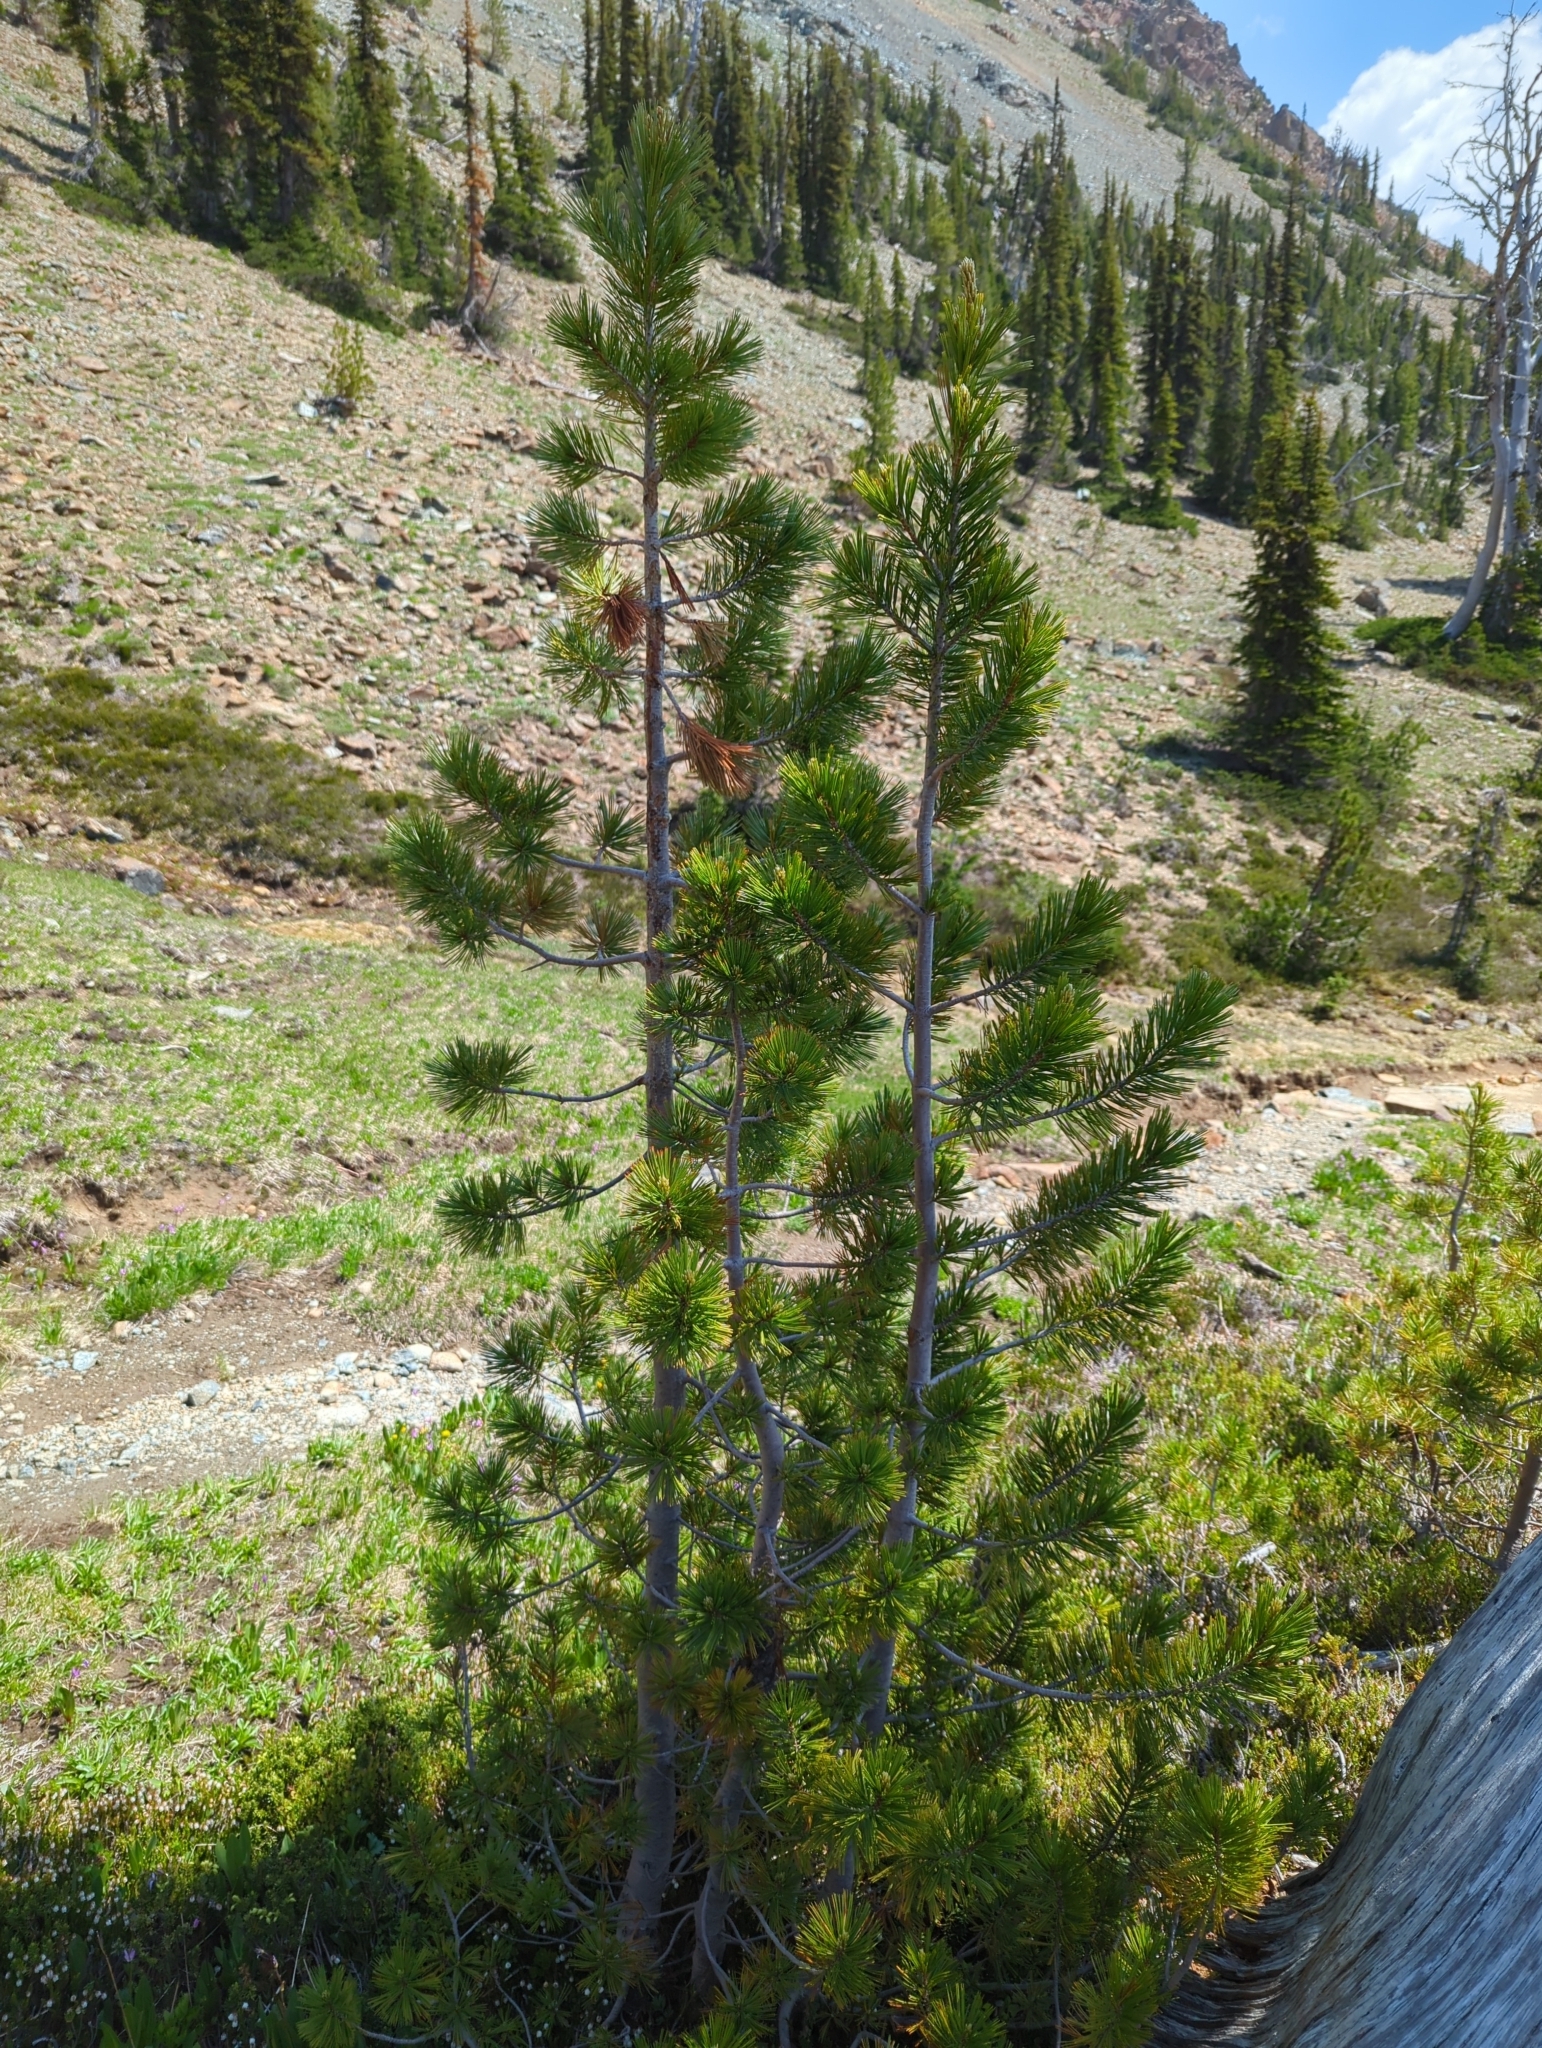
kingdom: Plantae
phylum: Tracheophyta
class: Pinopsida
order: Pinales
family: Pinaceae
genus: Pinus
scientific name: Pinus albicaulis
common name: Whitebark pine
